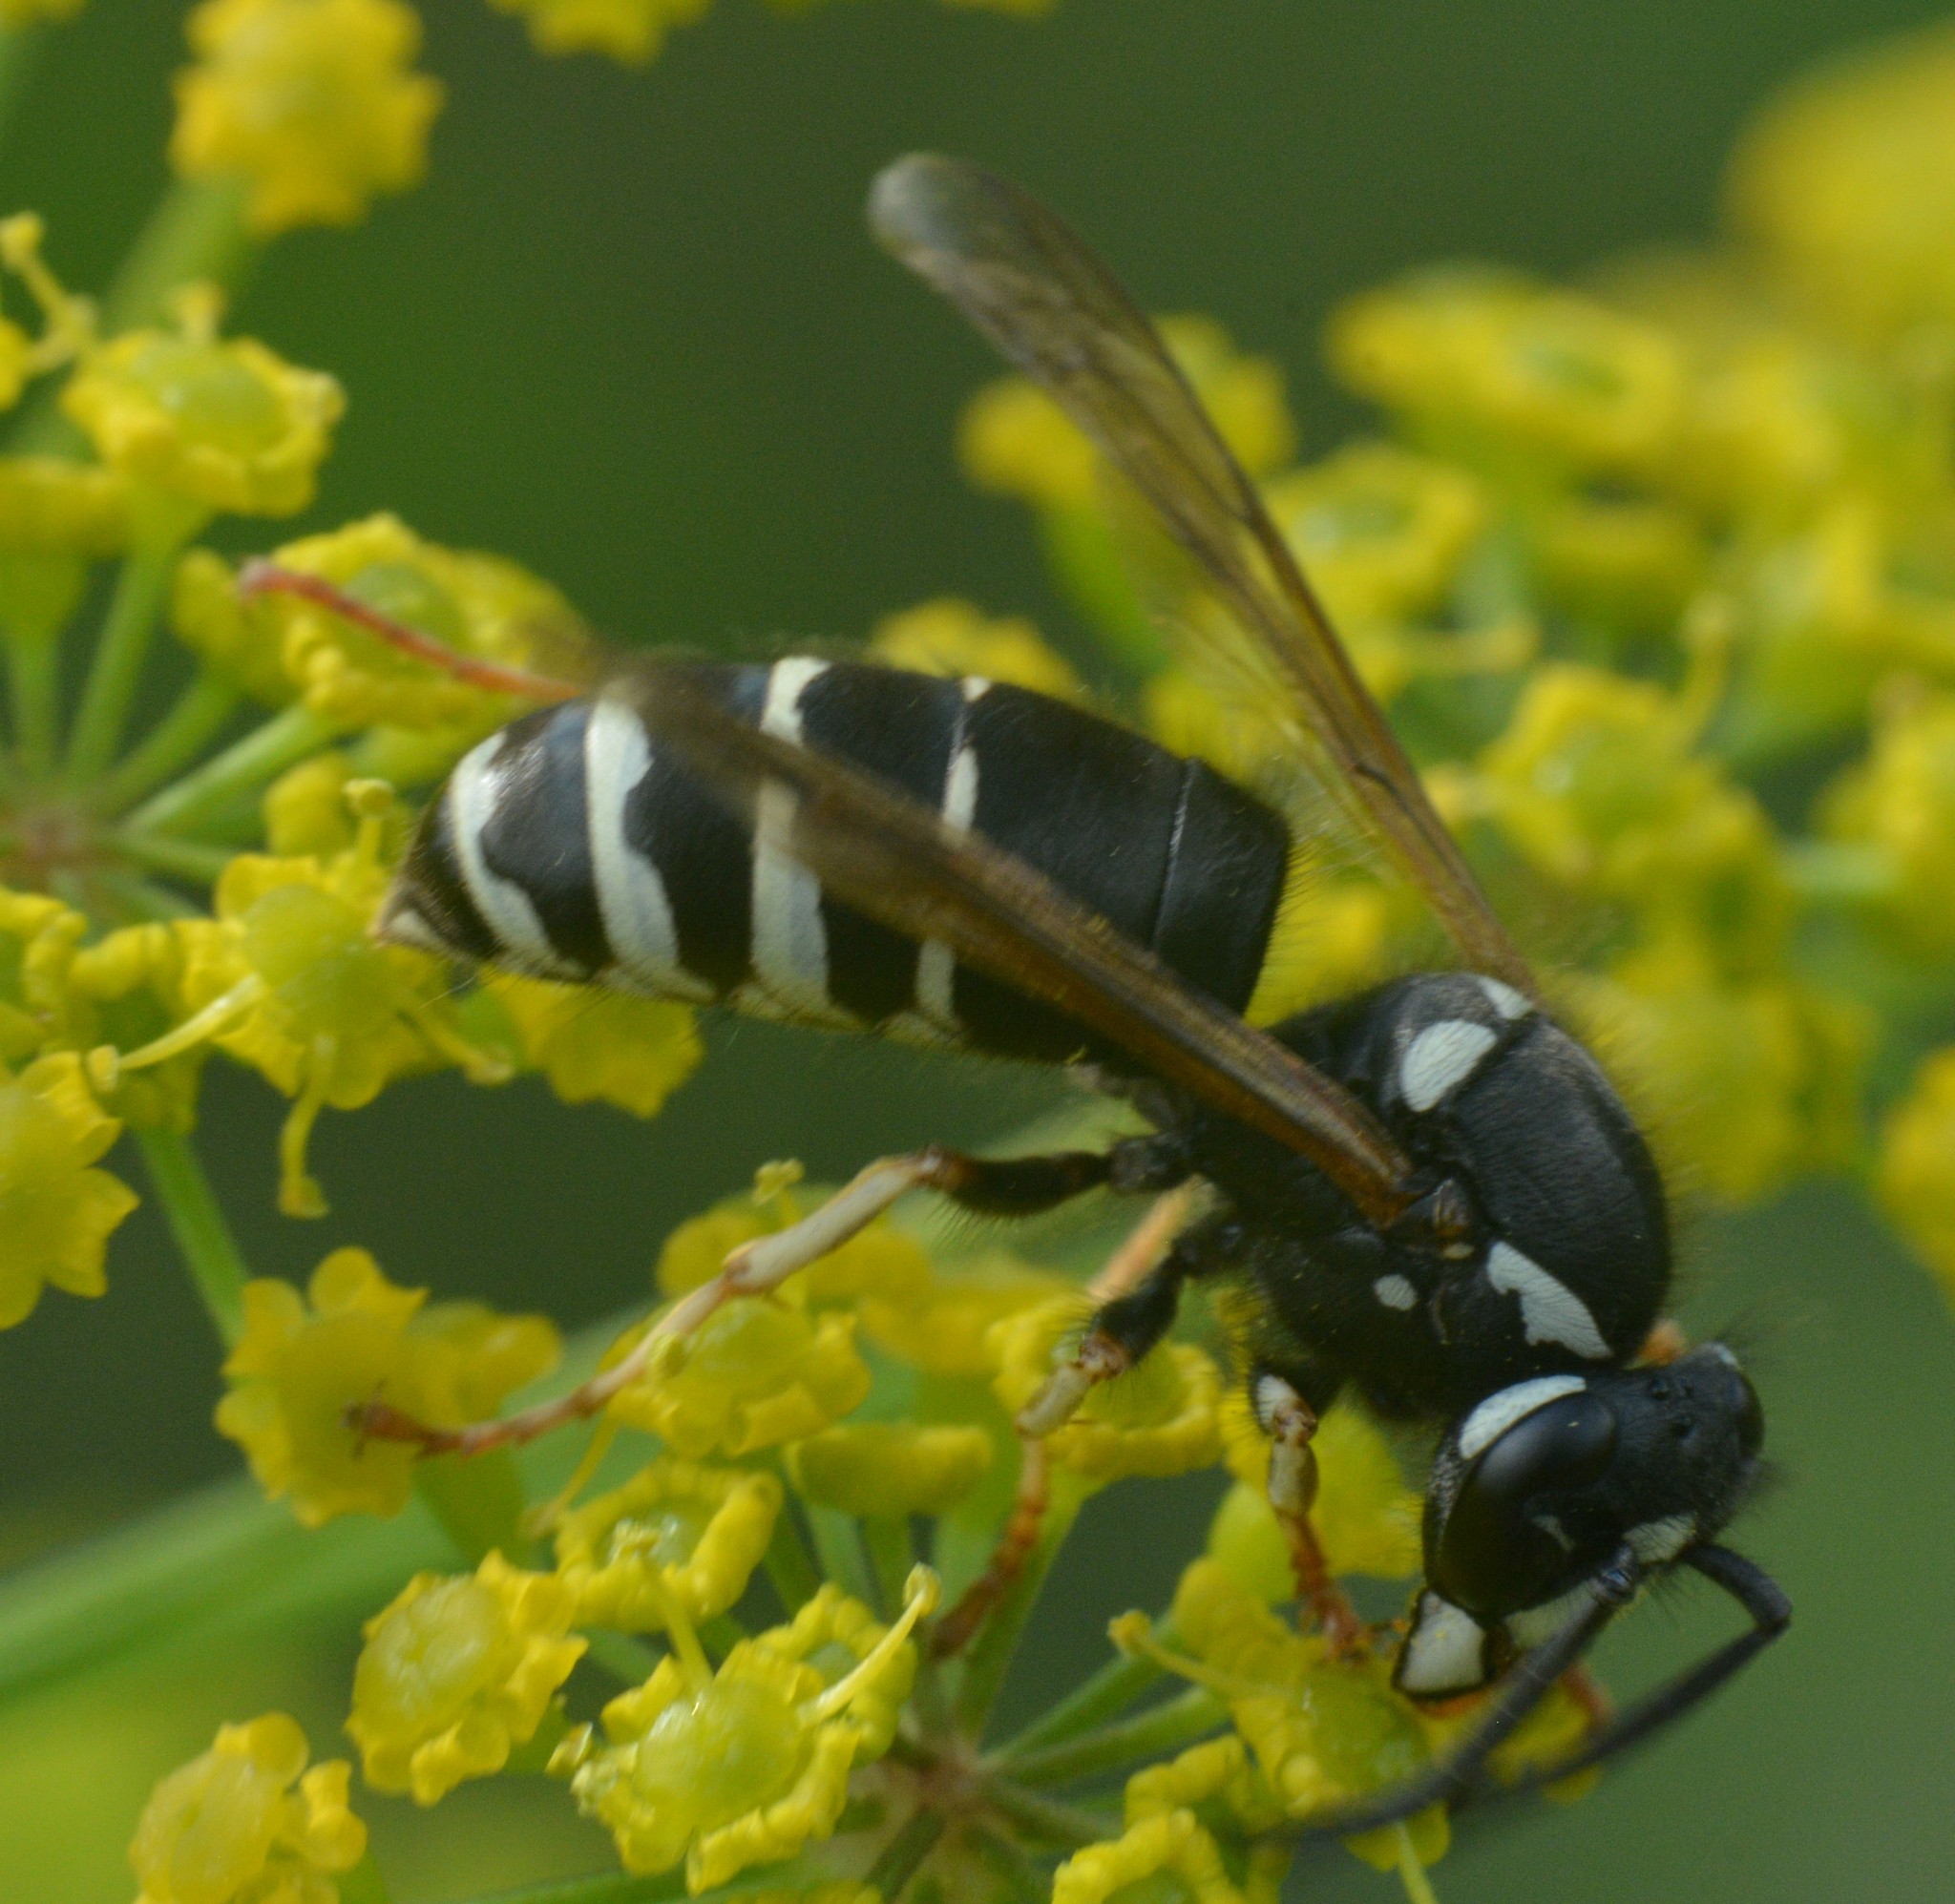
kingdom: Animalia
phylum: Arthropoda
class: Insecta
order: Hymenoptera
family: Vespidae
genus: Vespula
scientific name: Vespula consobrina
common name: Blackjacket
